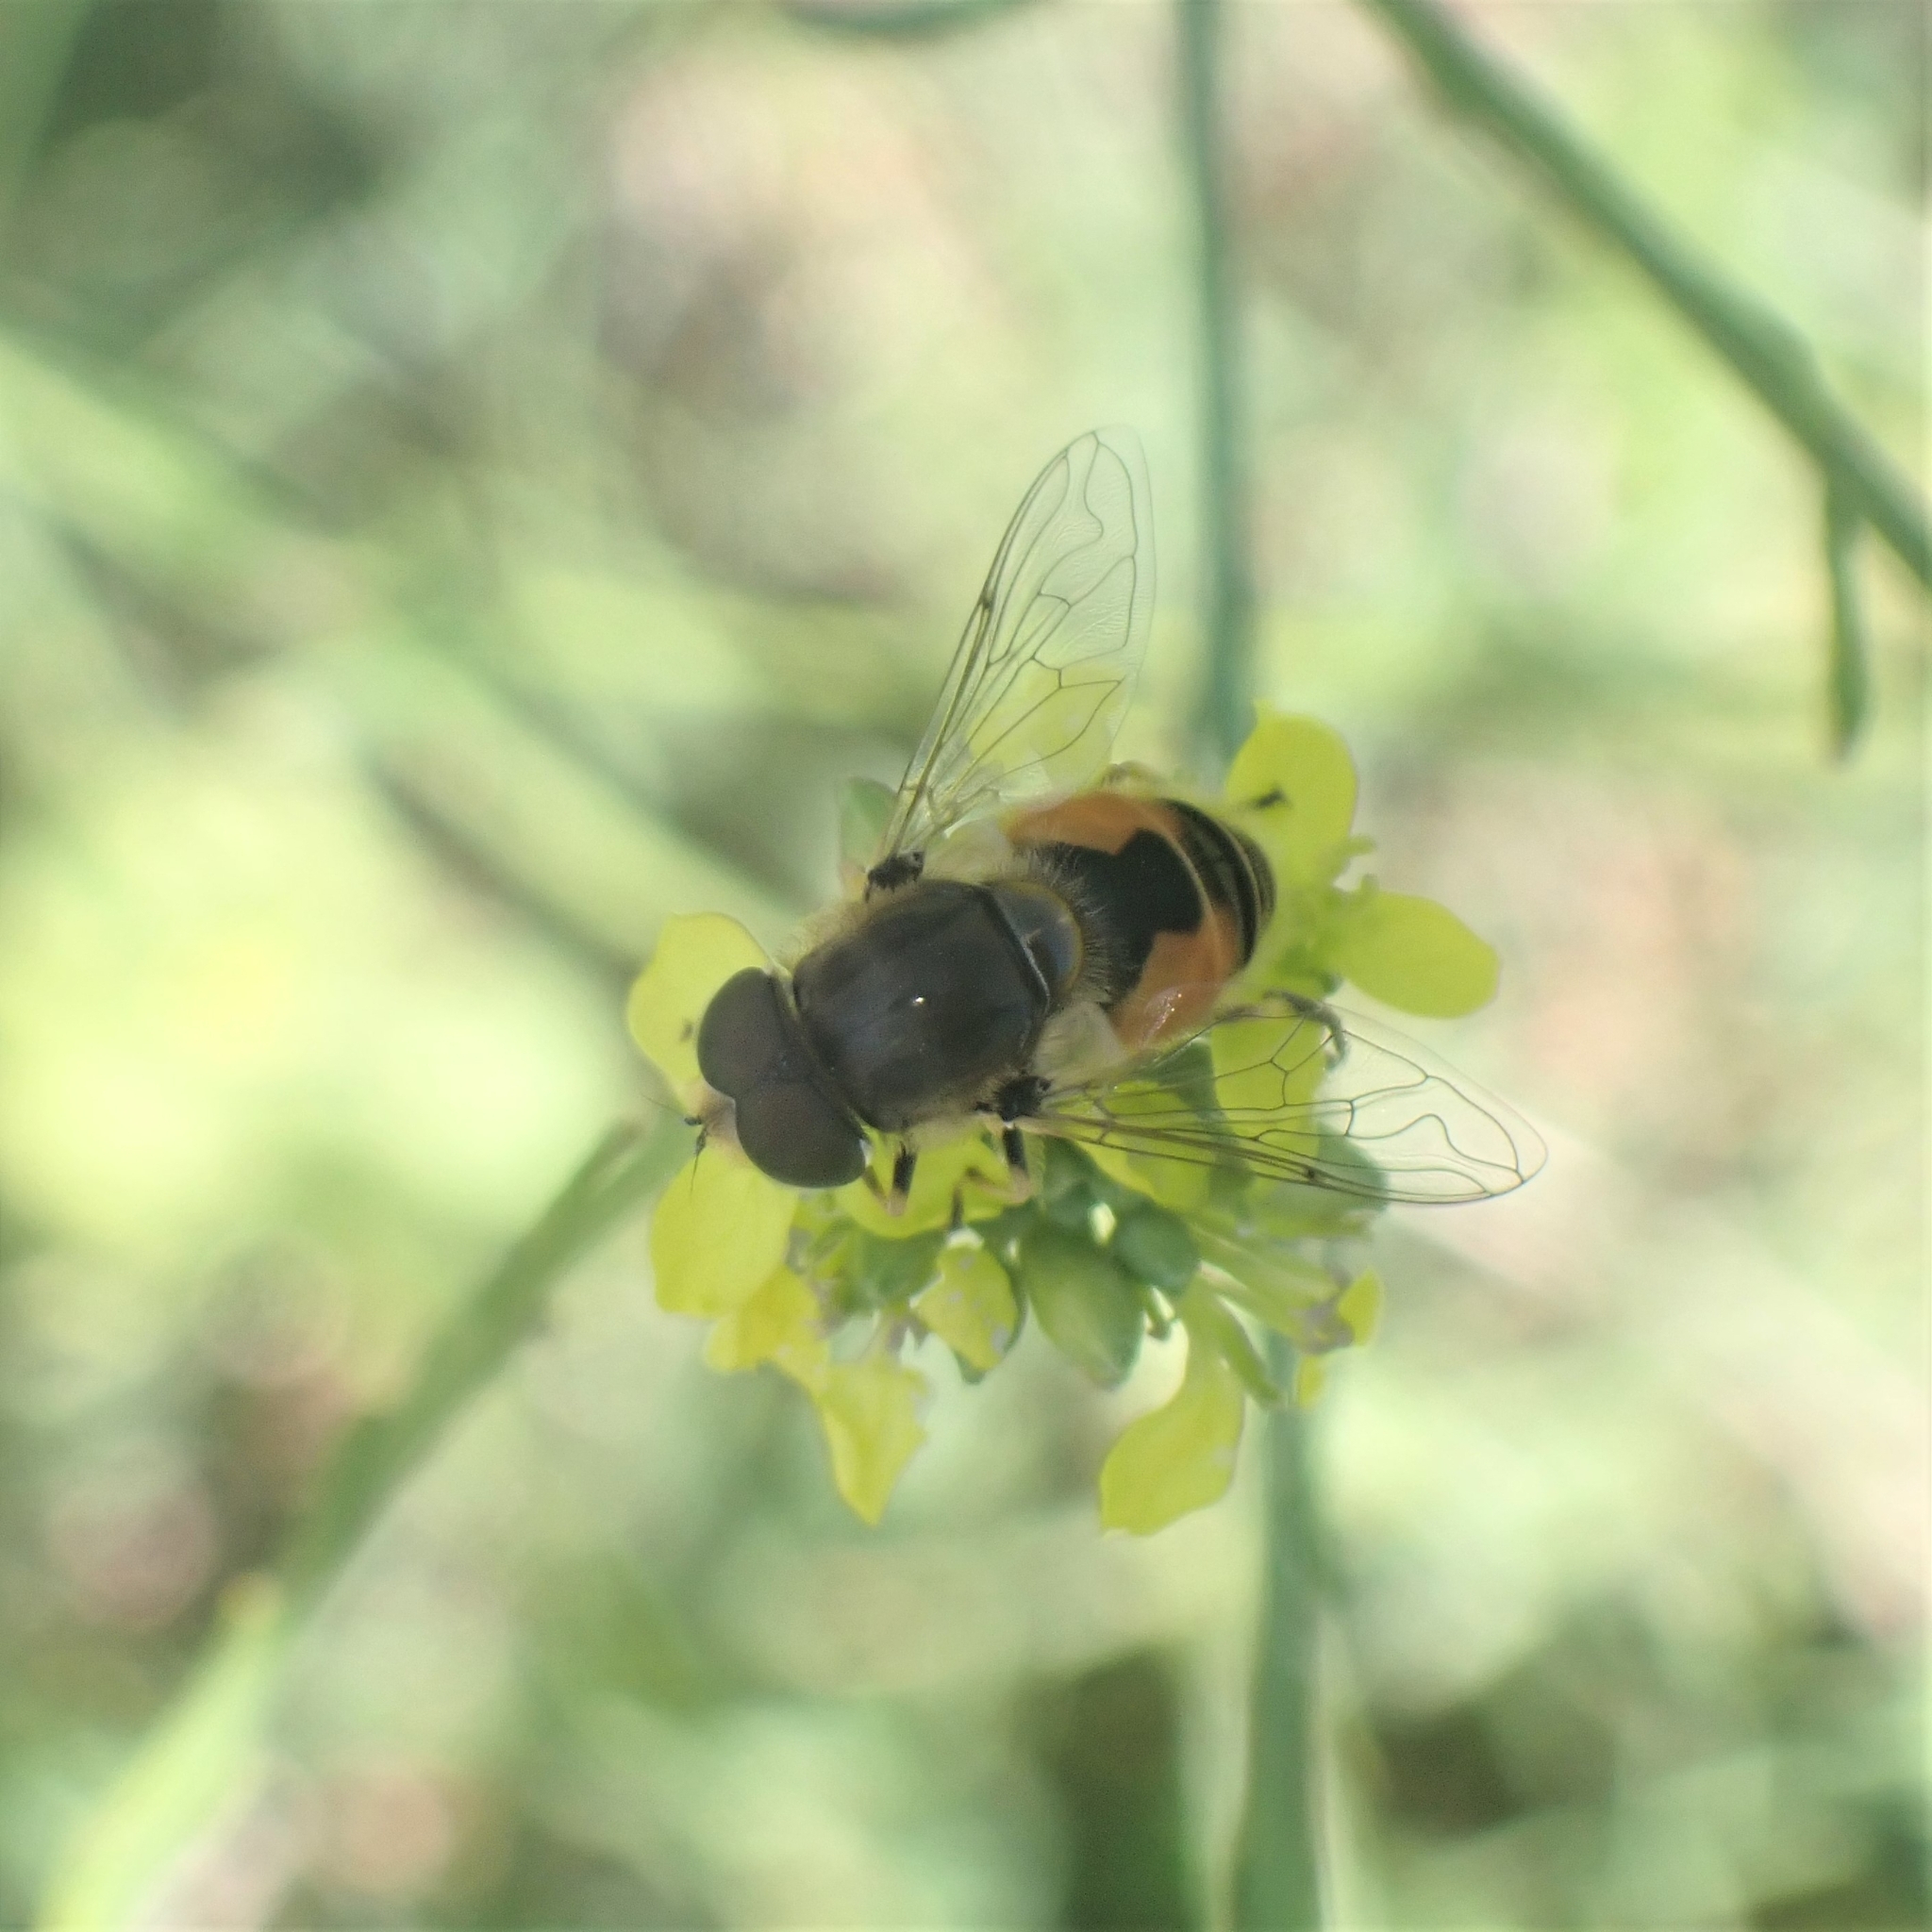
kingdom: Animalia
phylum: Arthropoda
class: Insecta
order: Diptera
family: Syrphidae
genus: Eristalis
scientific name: Eristalis arbustorum
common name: Hover fly
